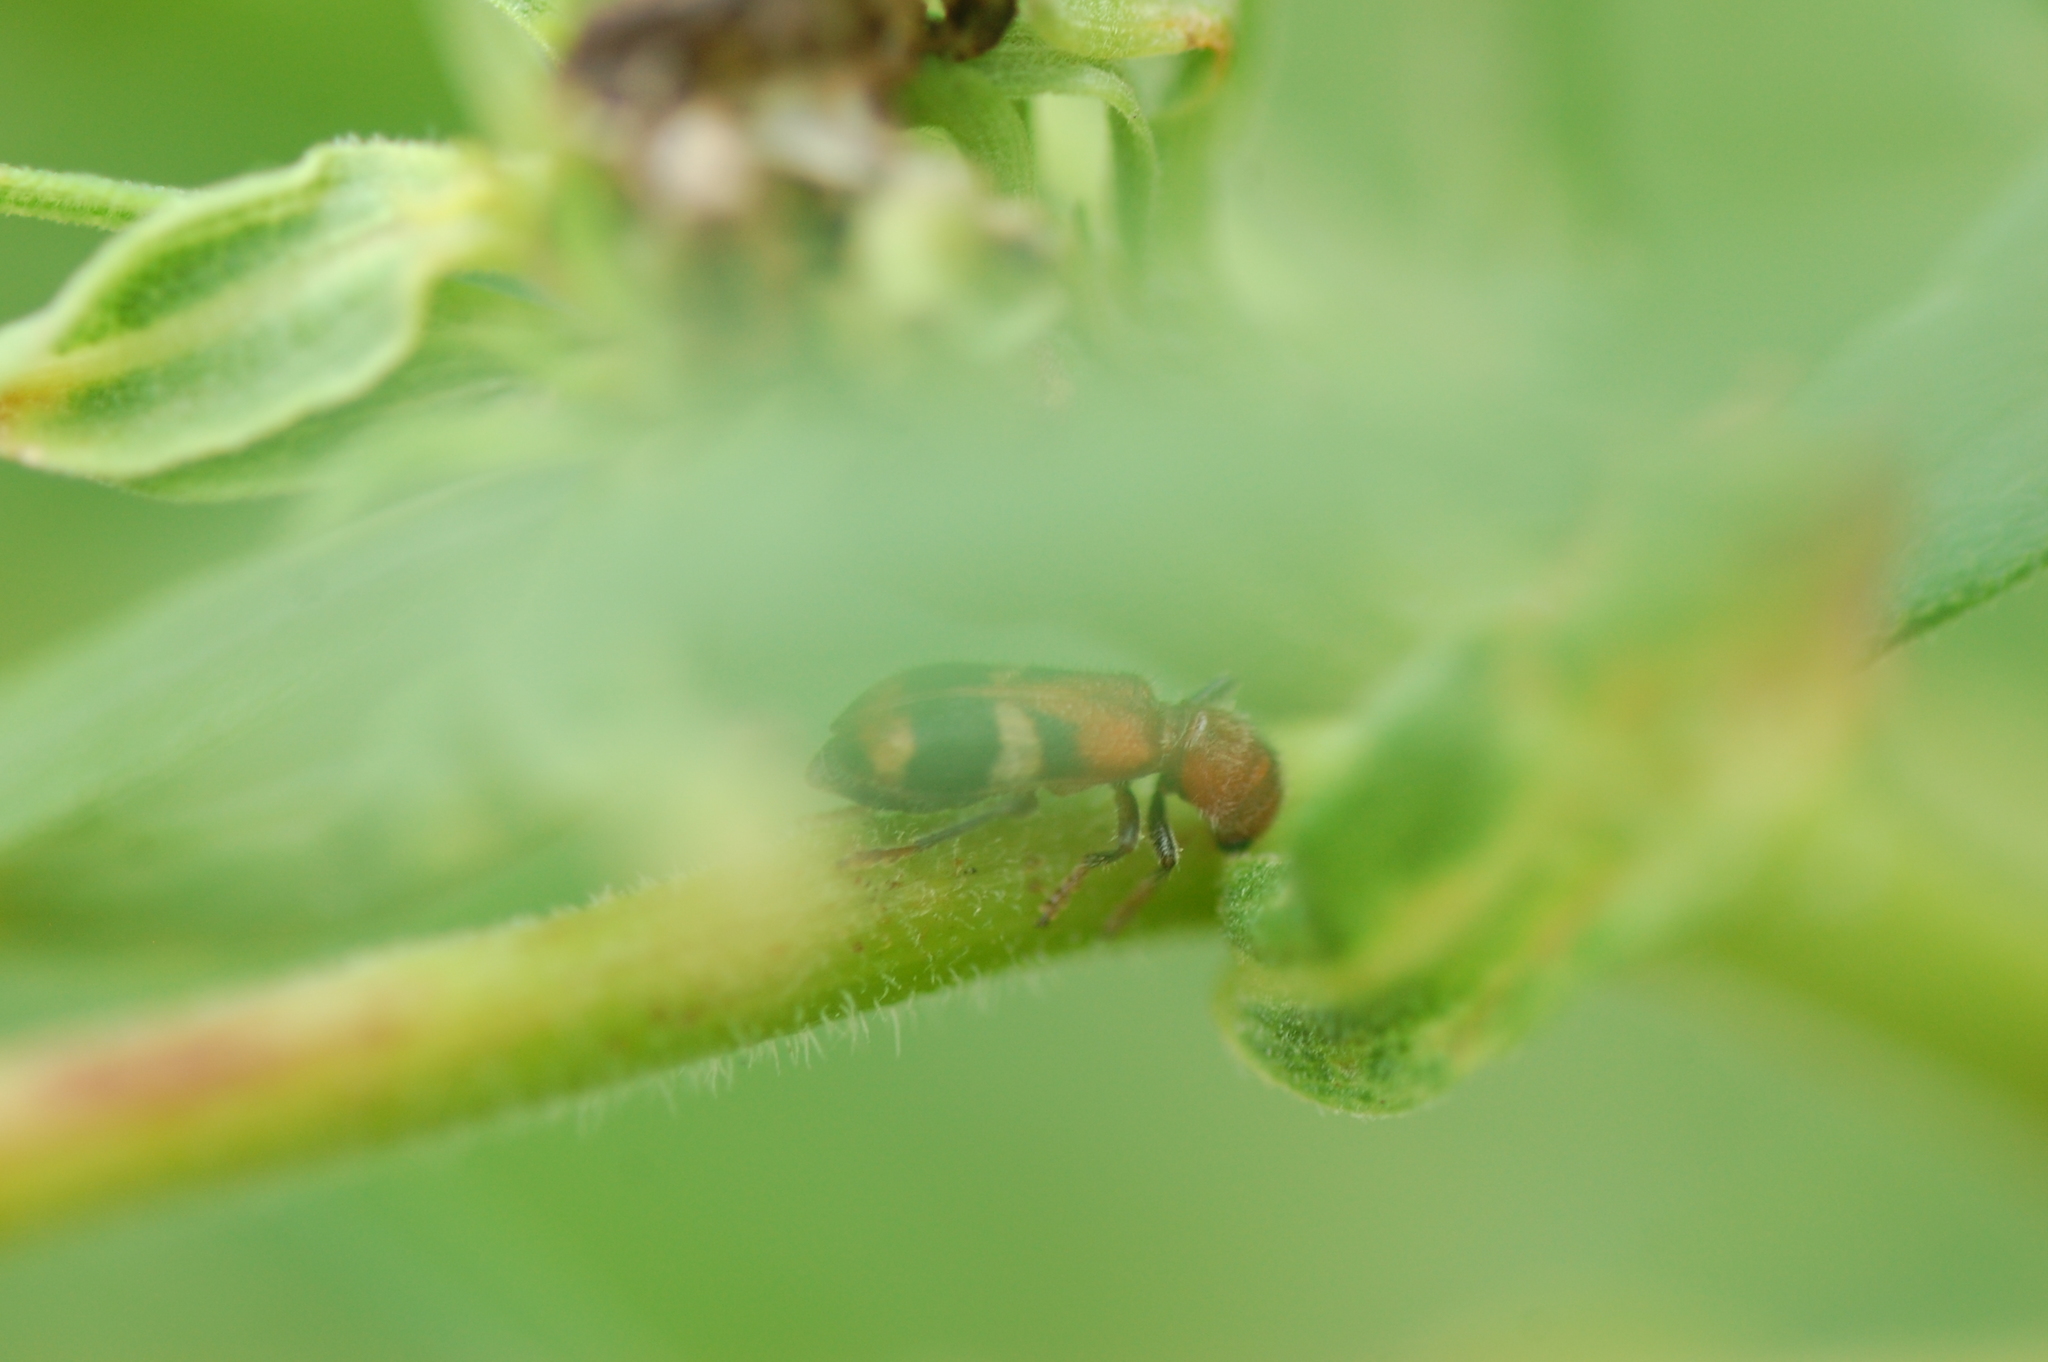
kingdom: Animalia
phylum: Arthropoda
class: Insecta
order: Coleoptera
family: Cleridae
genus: Enoclerus
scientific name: Enoclerus rosmarus
